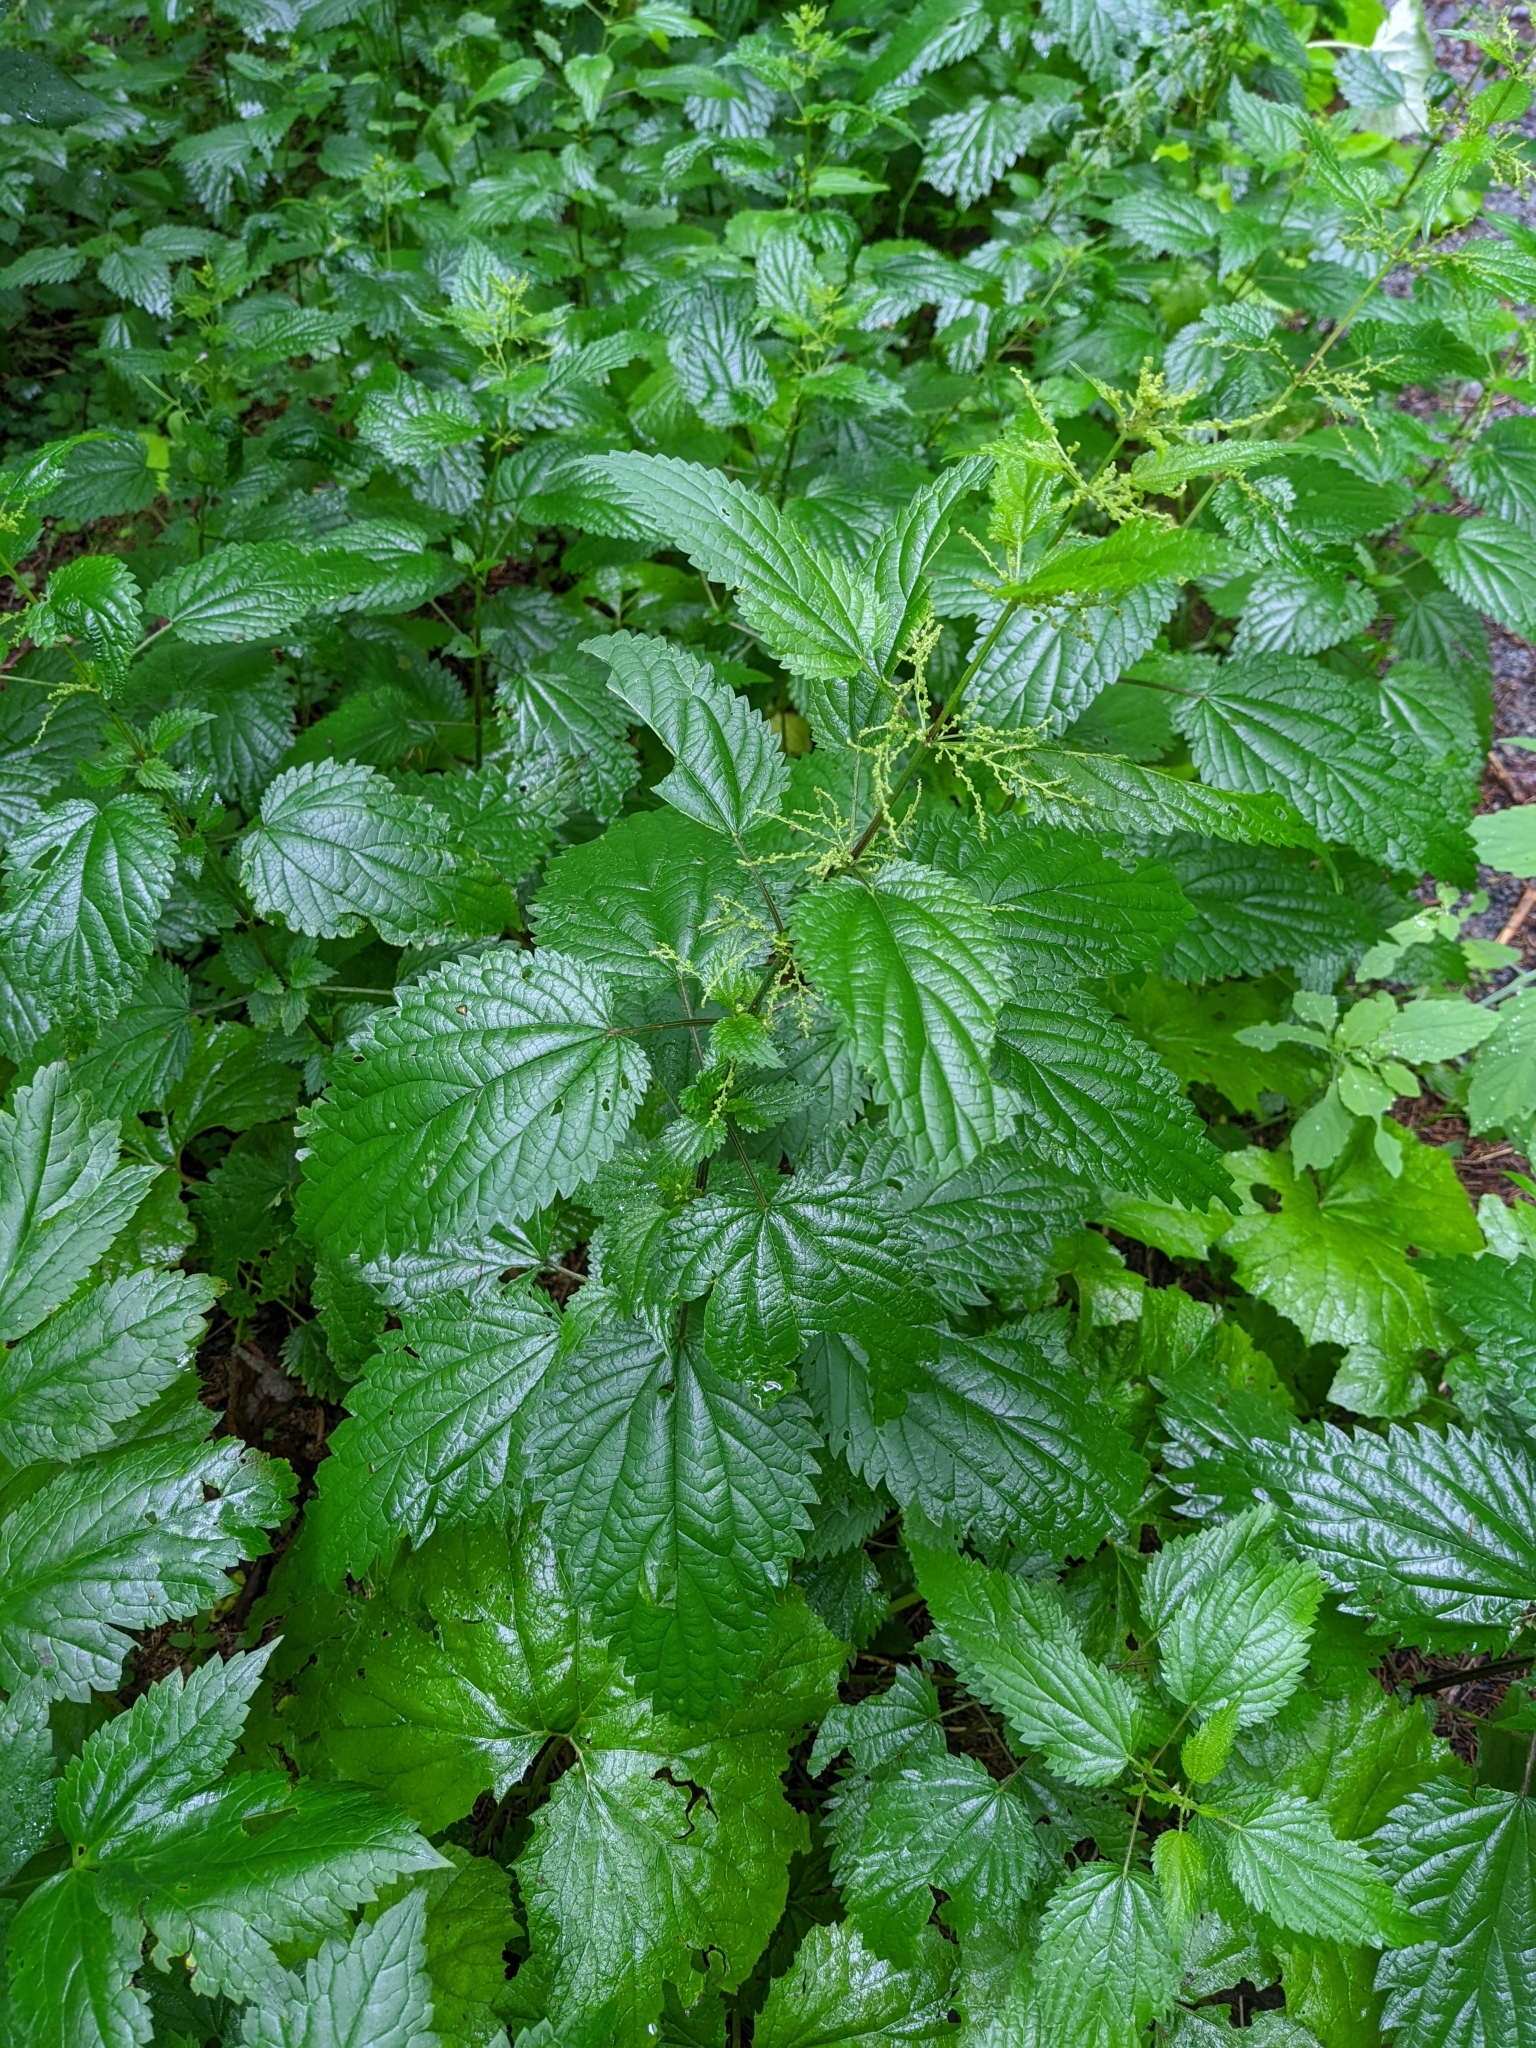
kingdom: Plantae
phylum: Tracheophyta
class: Magnoliopsida
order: Rosales
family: Urticaceae
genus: Urtica
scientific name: Urtica dioica
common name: Common nettle
